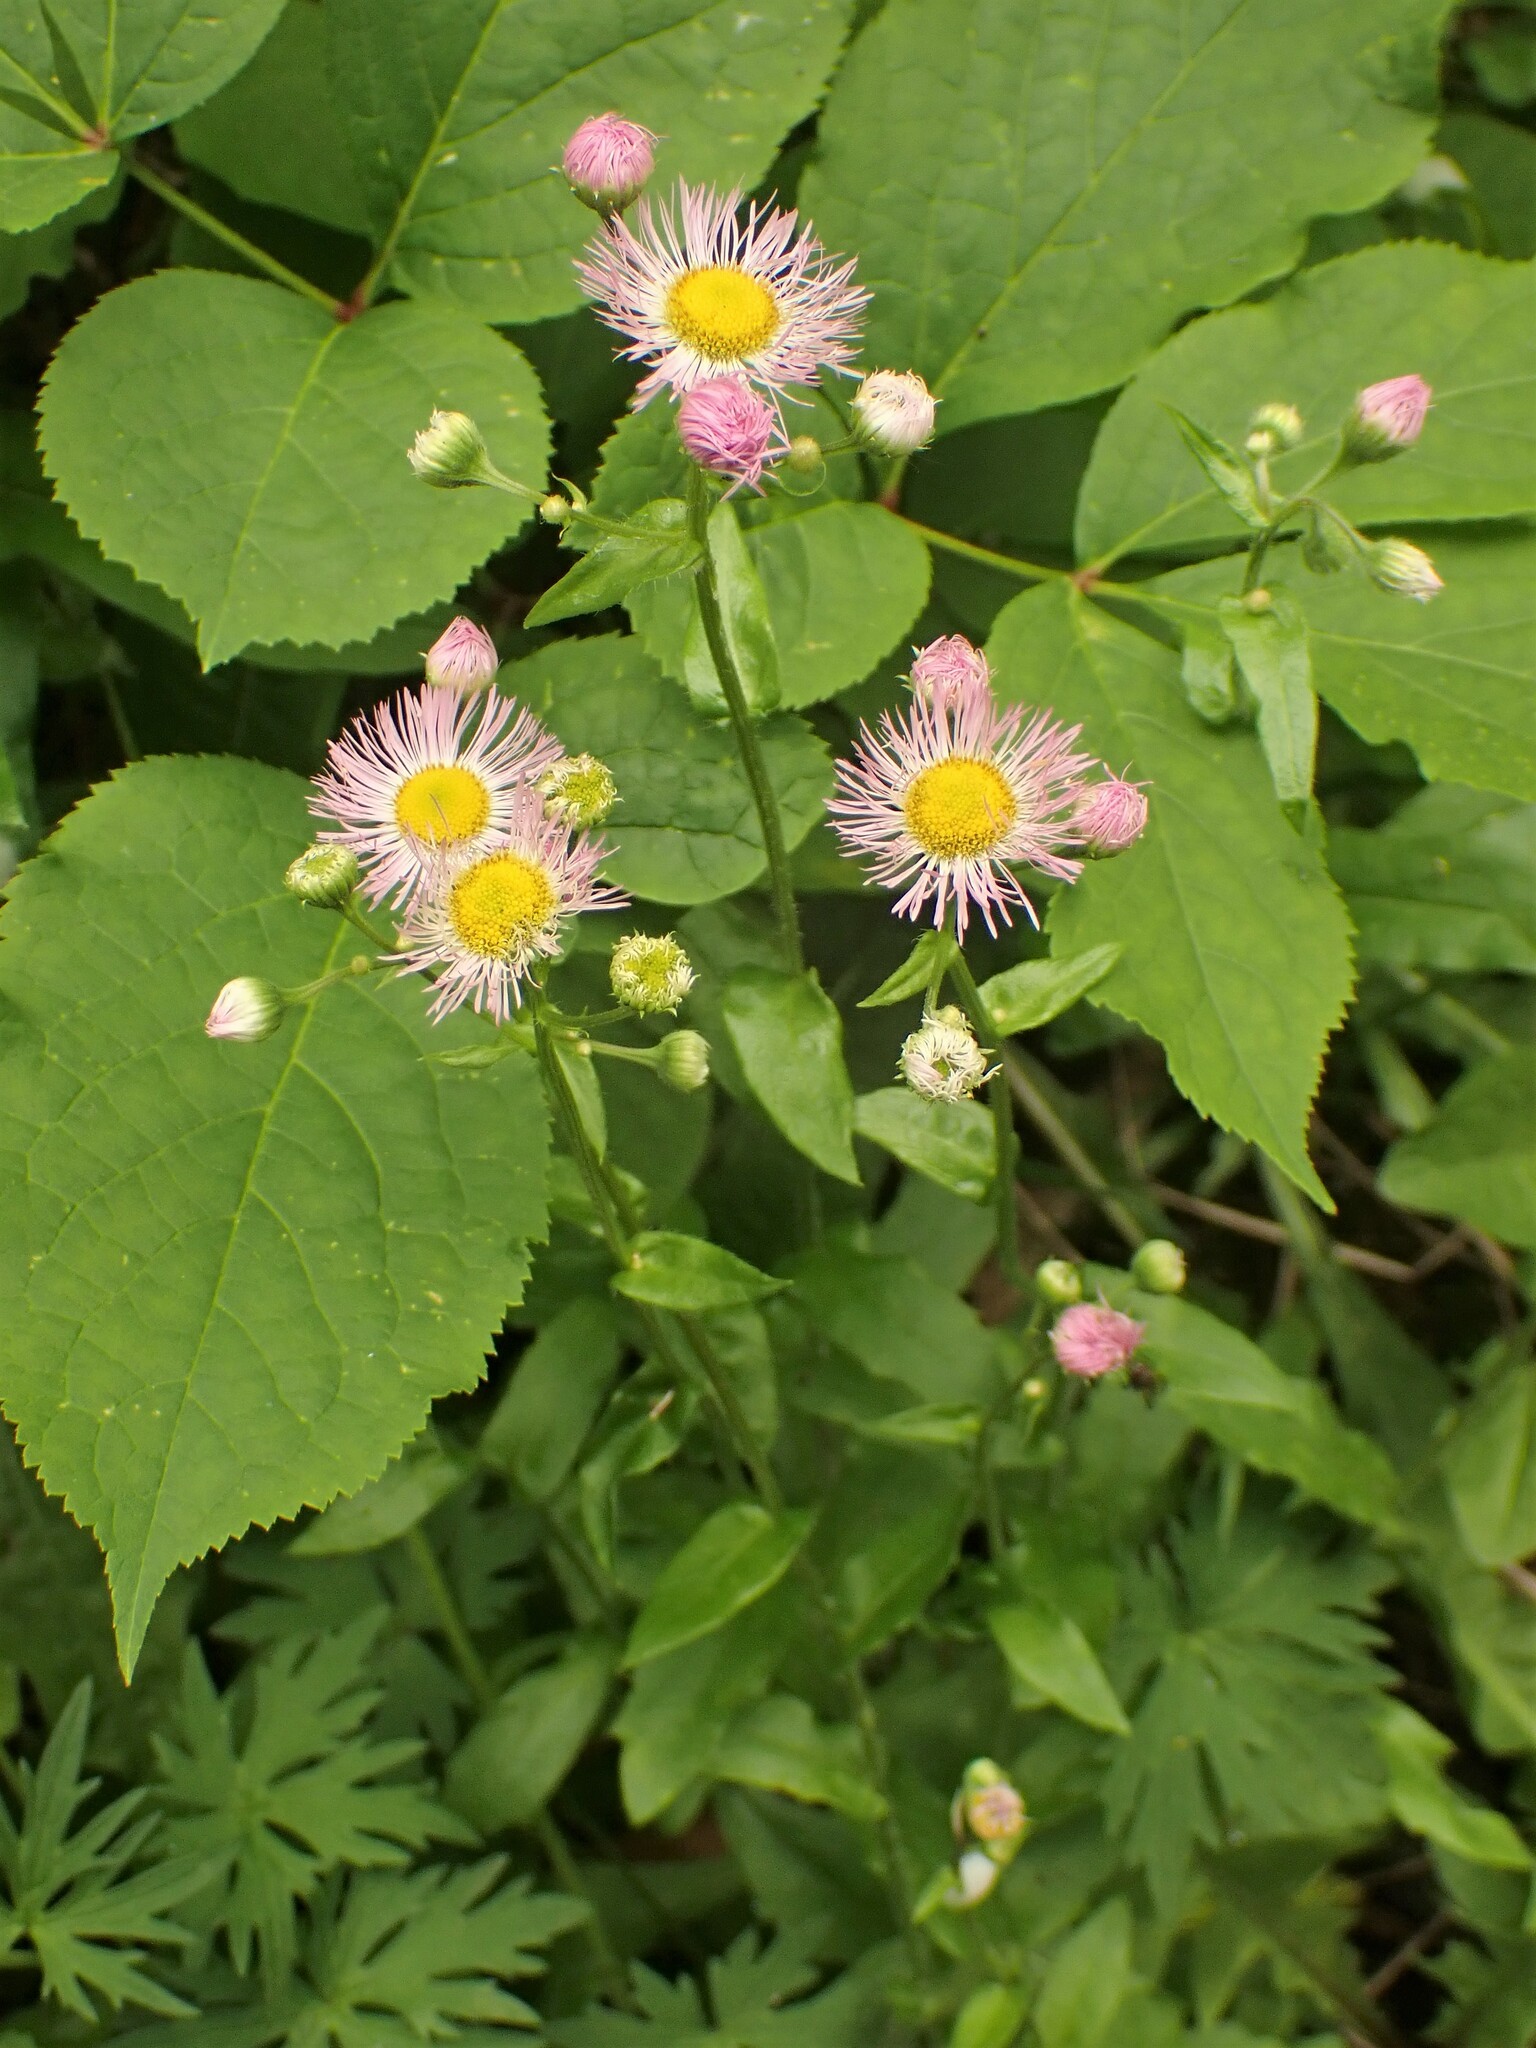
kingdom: Plantae
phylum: Tracheophyta
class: Magnoliopsida
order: Asterales
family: Asteraceae
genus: Erigeron
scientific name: Erigeron philadelphicus
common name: Robin's-plantain
